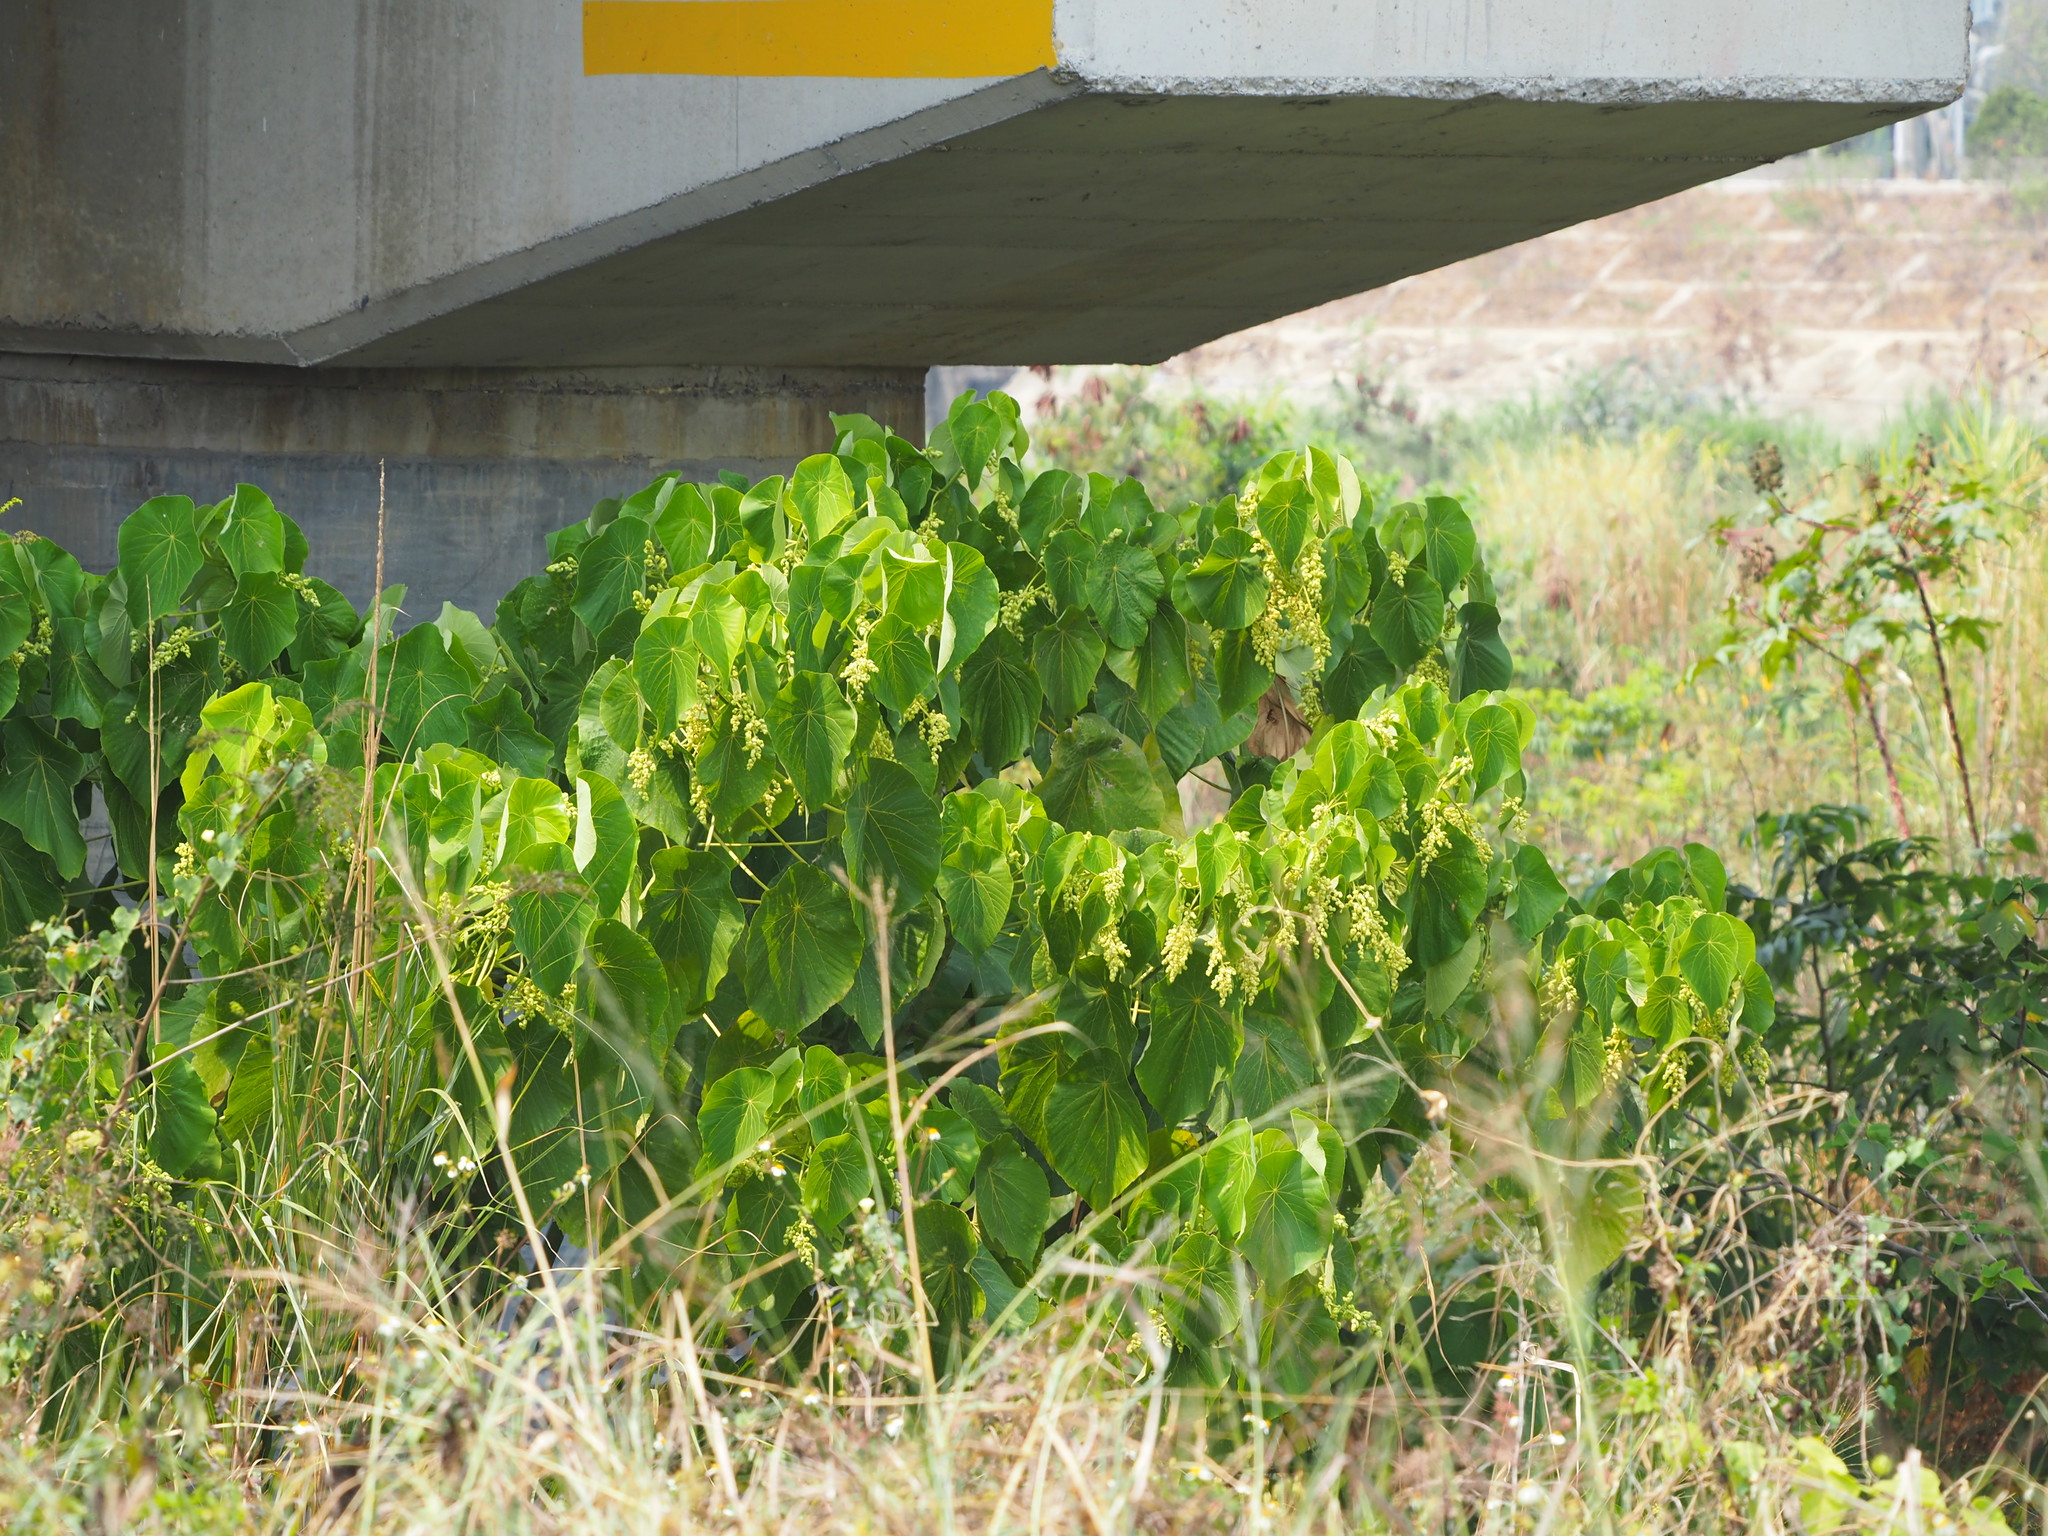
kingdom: Plantae
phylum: Tracheophyta
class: Magnoliopsida
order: Malpighiales
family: Euphorbiaceae
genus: Macaranga
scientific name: Macaranga tanarius
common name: Parasol leaf tree
